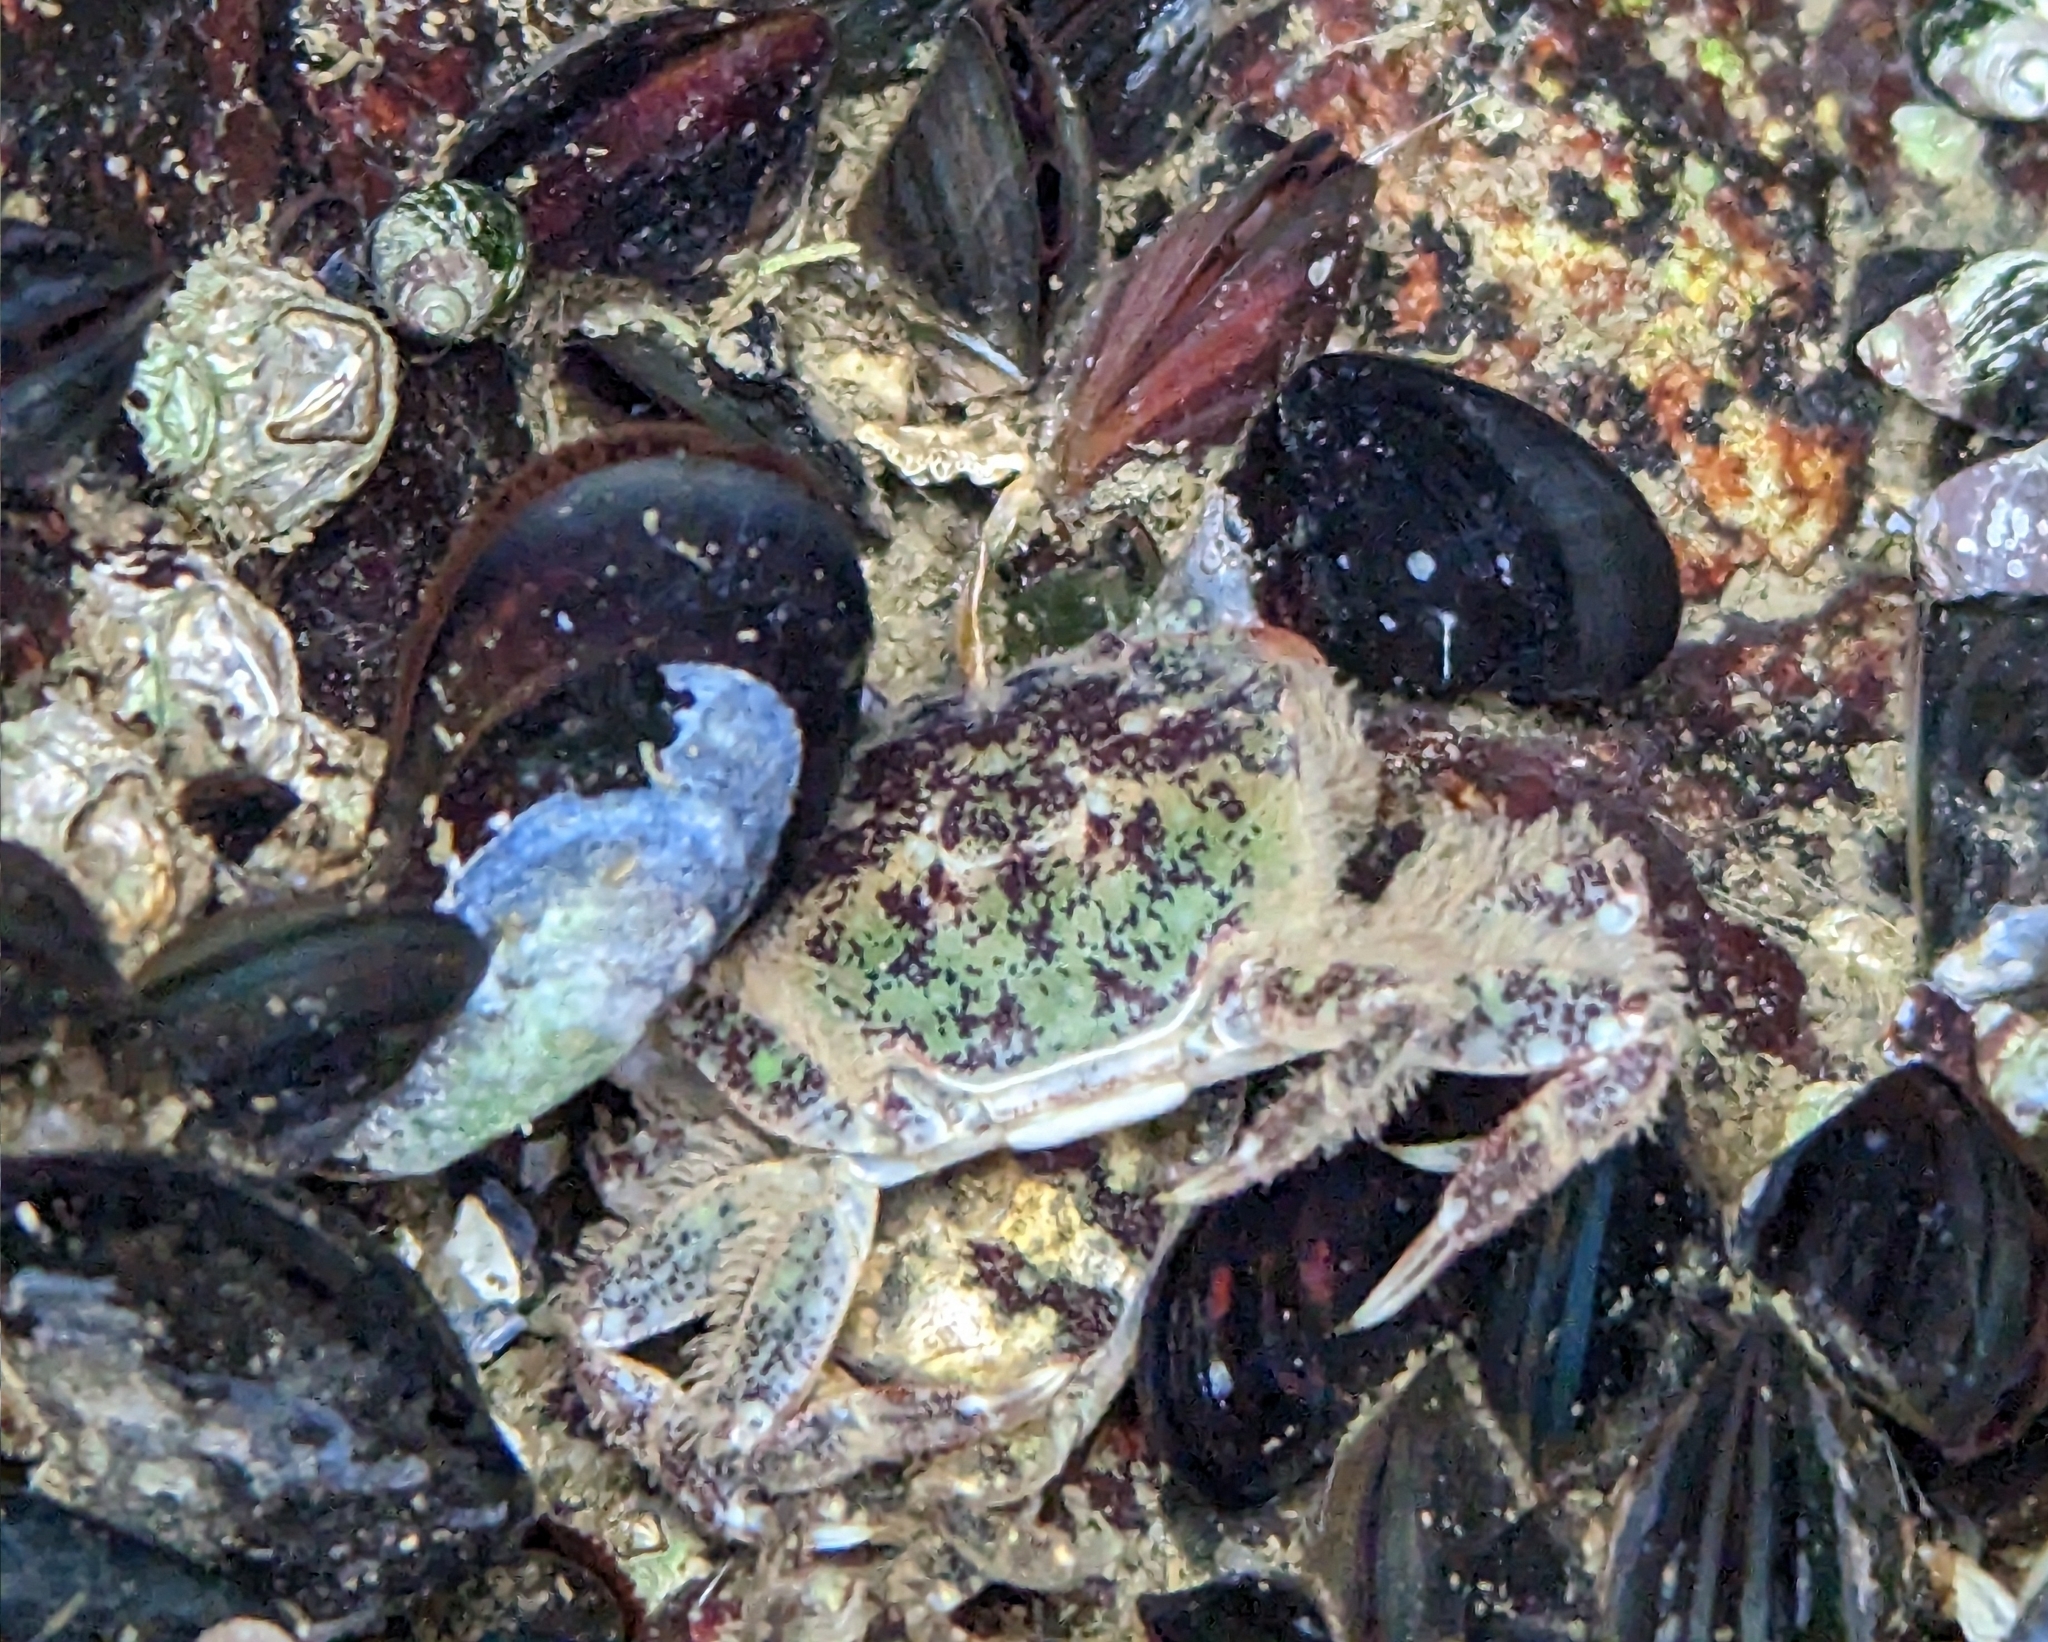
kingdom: Animalia
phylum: Arthropoda
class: Malacostraca
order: Decapoda
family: Varunidae
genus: Hemigrapsus
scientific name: Hemigrapsus oregonensis
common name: Yellow shore crab
